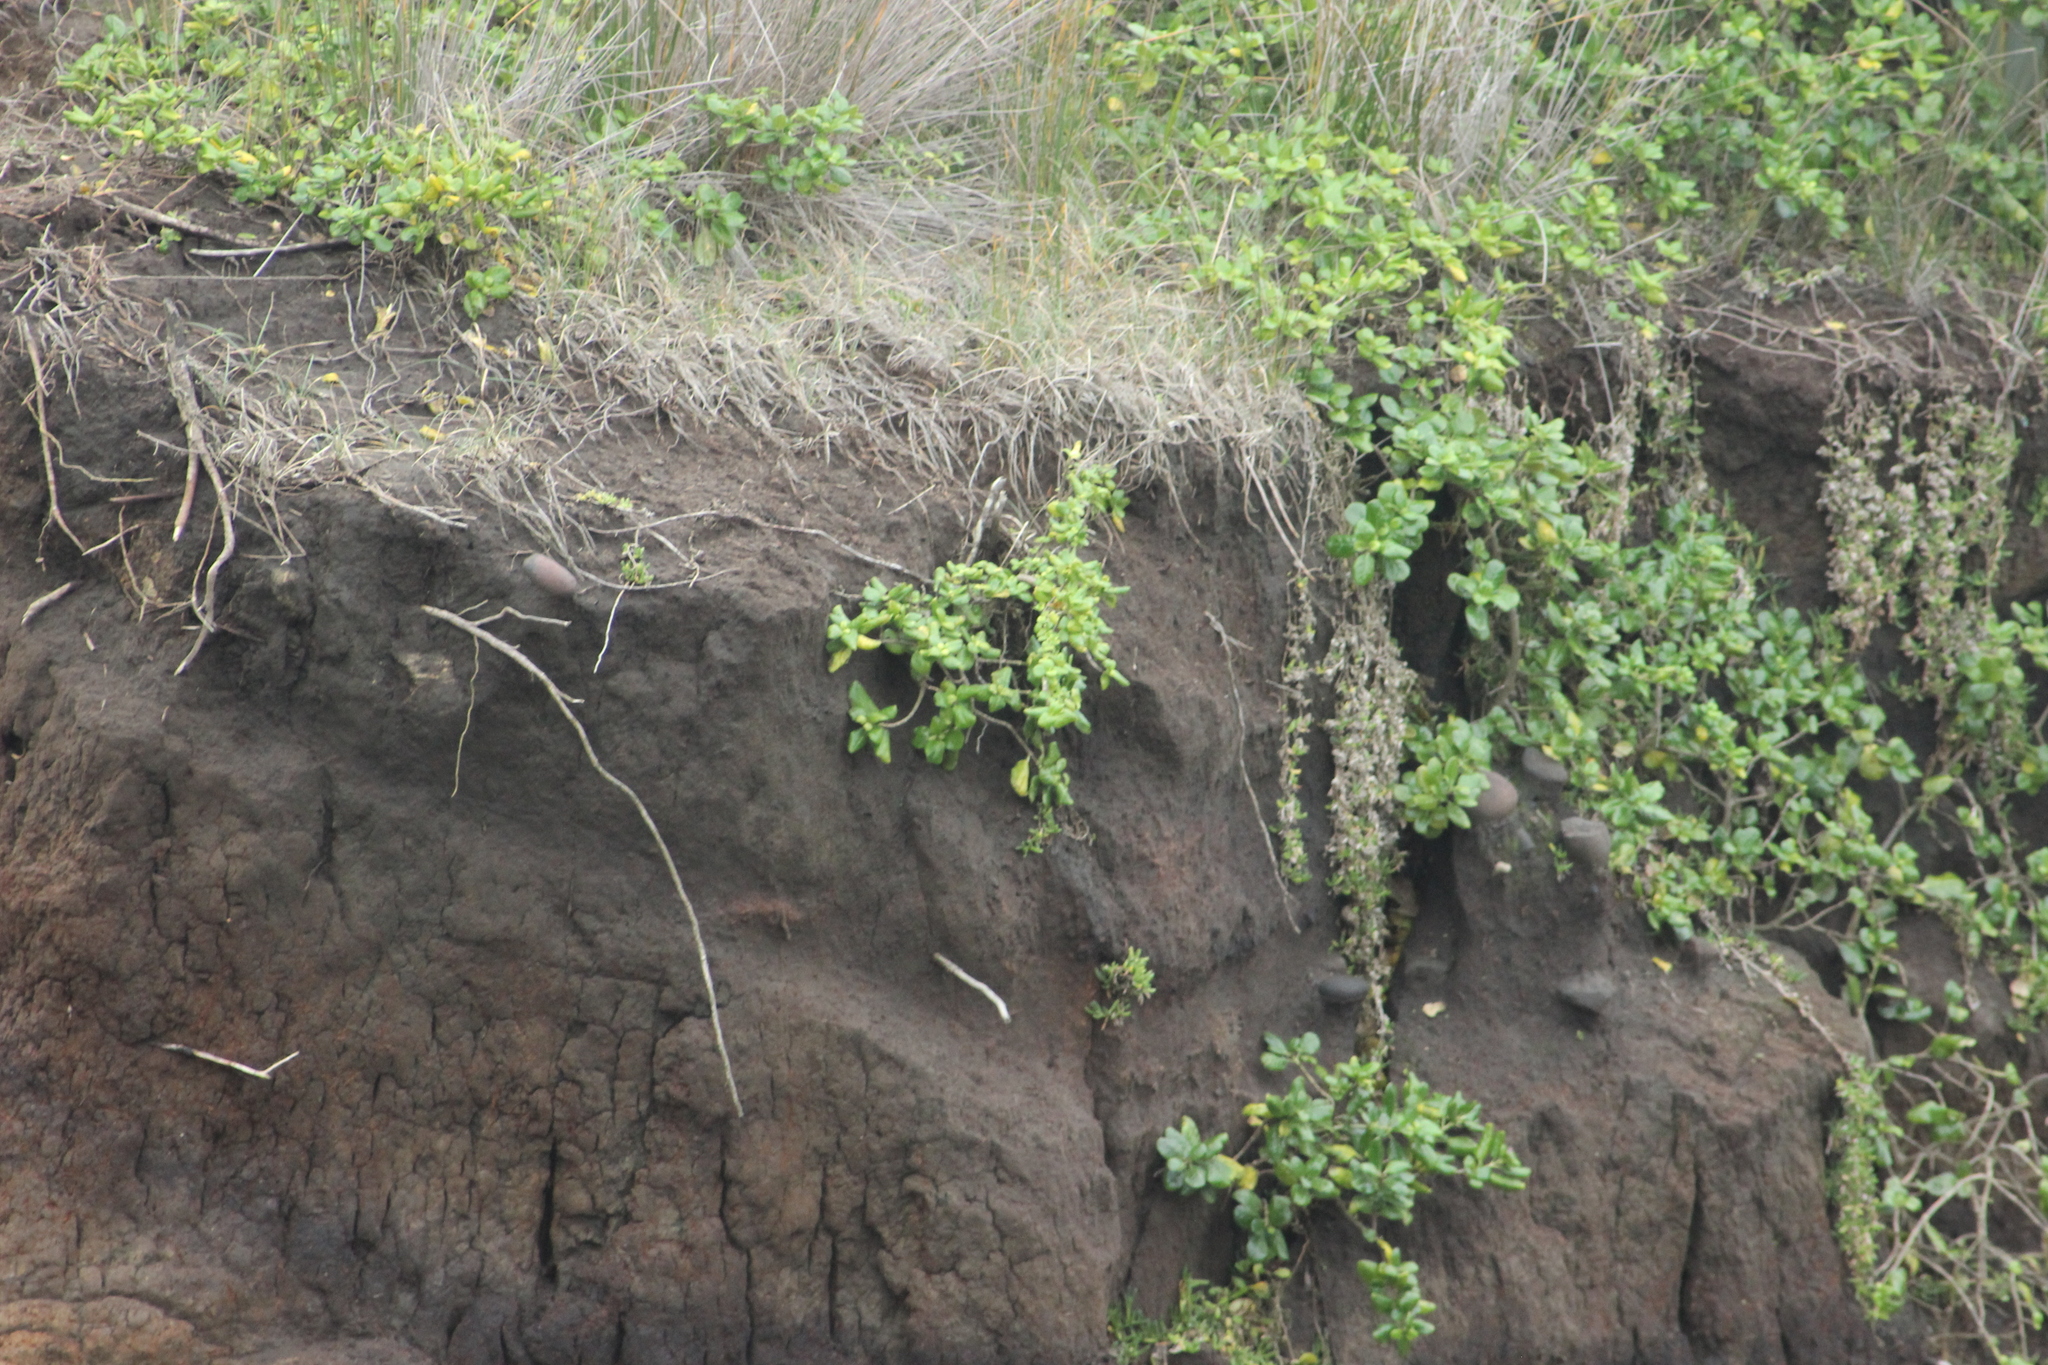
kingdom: Plantae
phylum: Tracheophyta
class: Magnoliopsida
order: Gentianales
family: Rubiaceae
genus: Coprosma
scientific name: Coprosma repens
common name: Tree bedstraw
